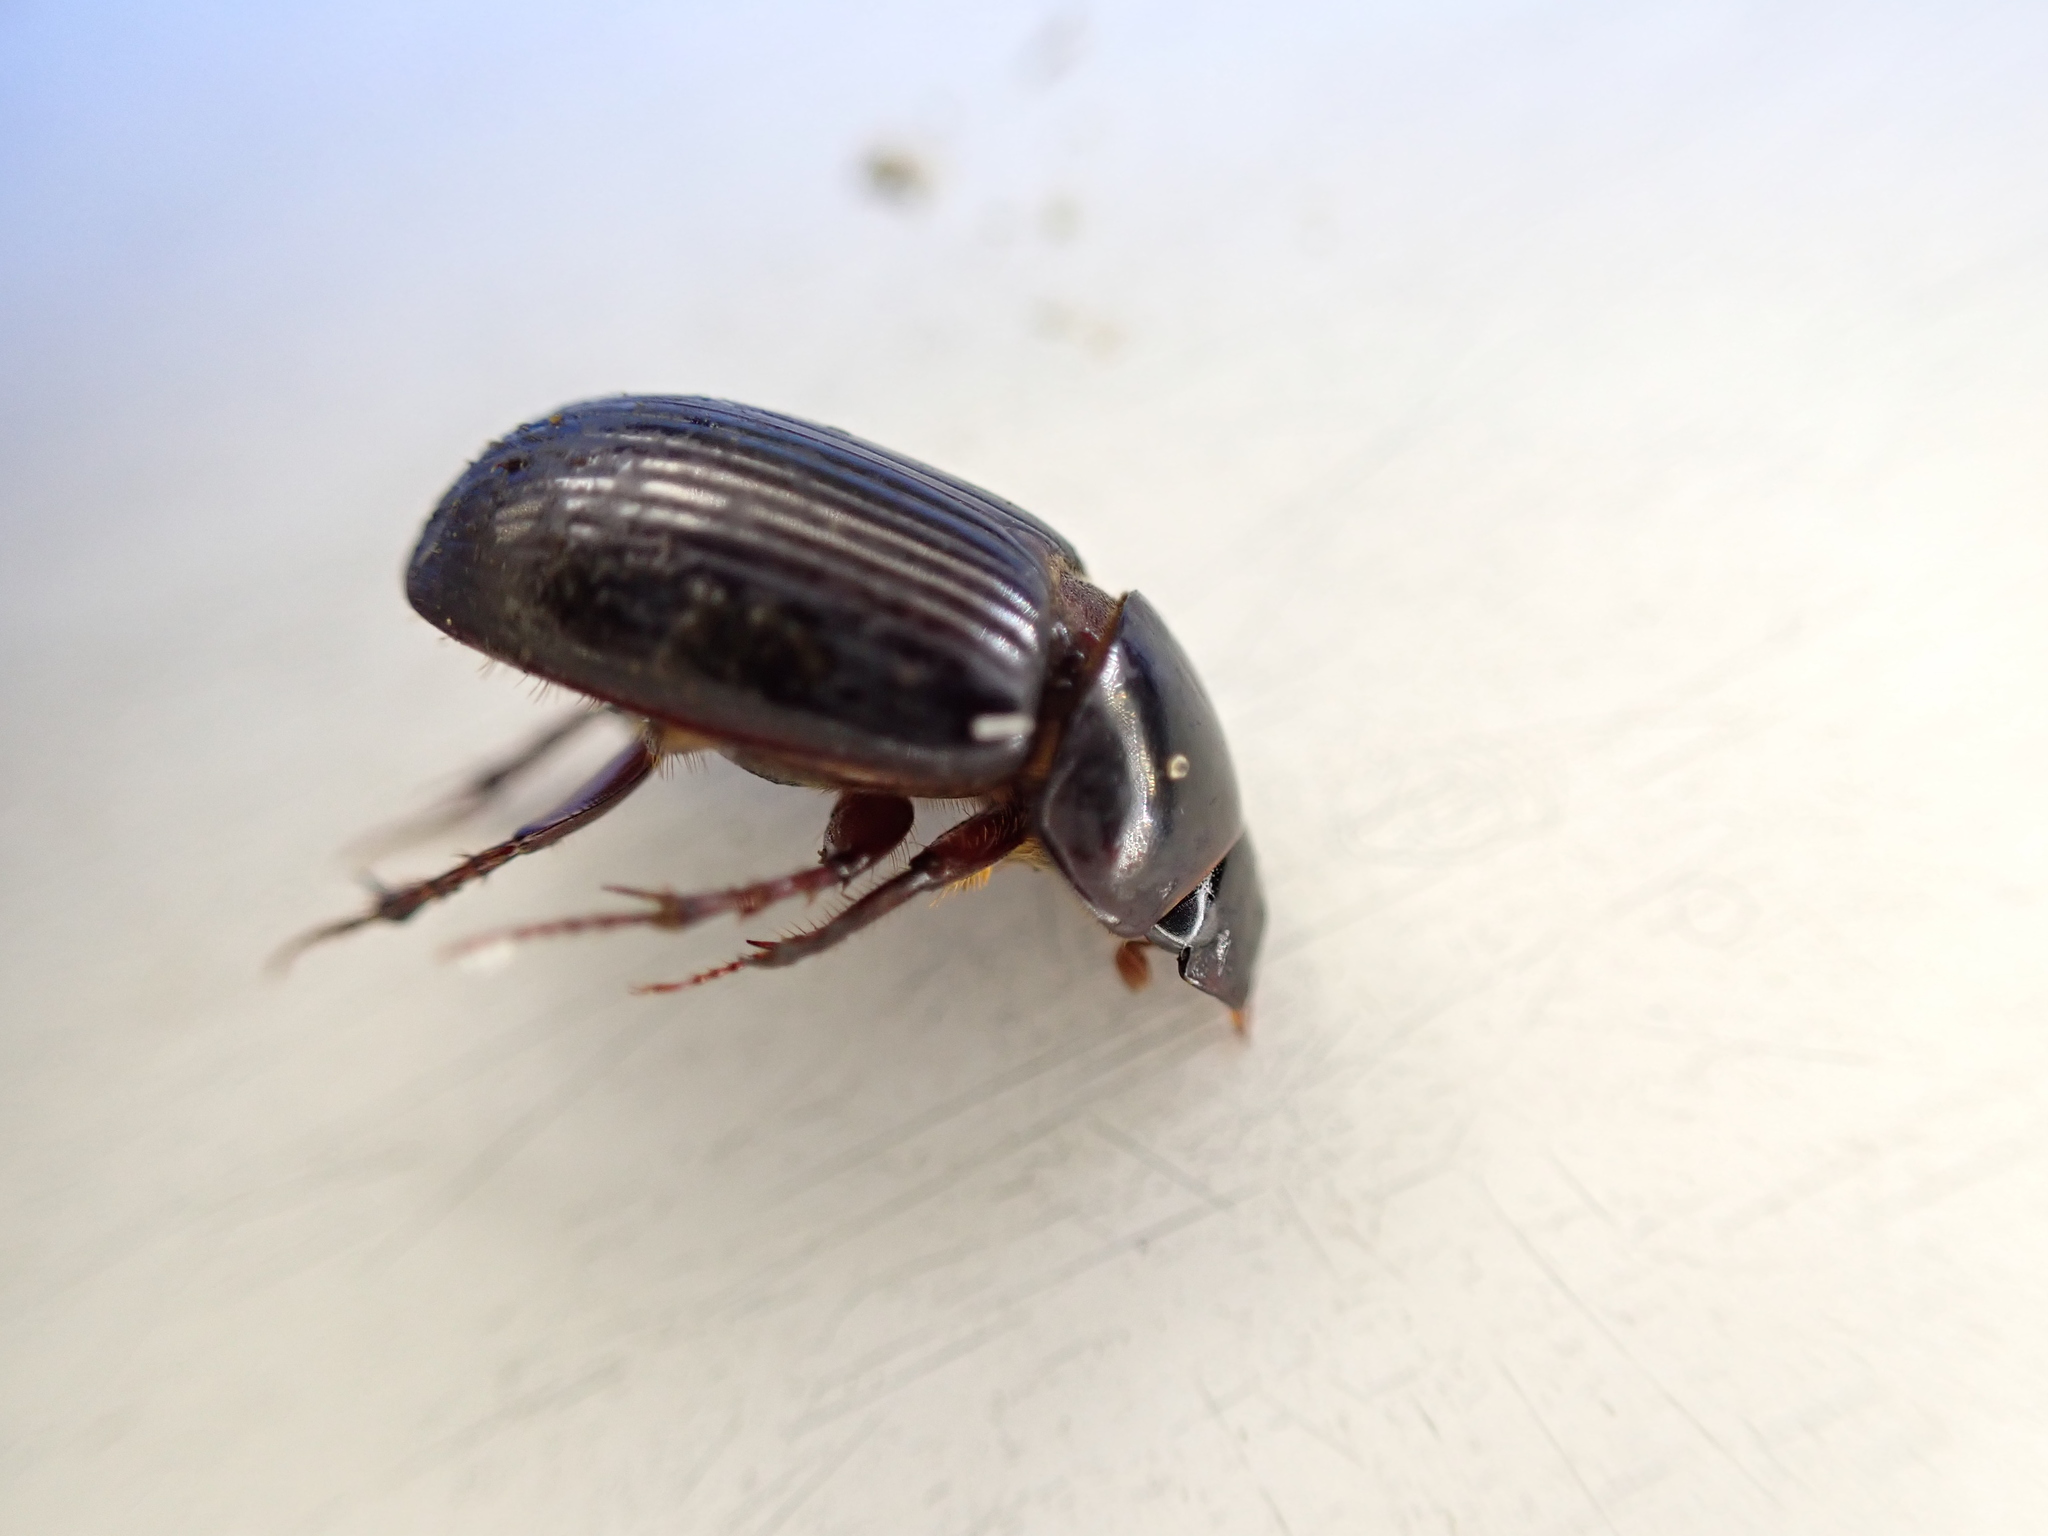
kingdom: Animalia
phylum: Arthropoda
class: Insecta
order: Coleoptera
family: Scarabaeidae
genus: Acrossus
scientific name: Acrossus rufipes
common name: Night-flying dung beetle
